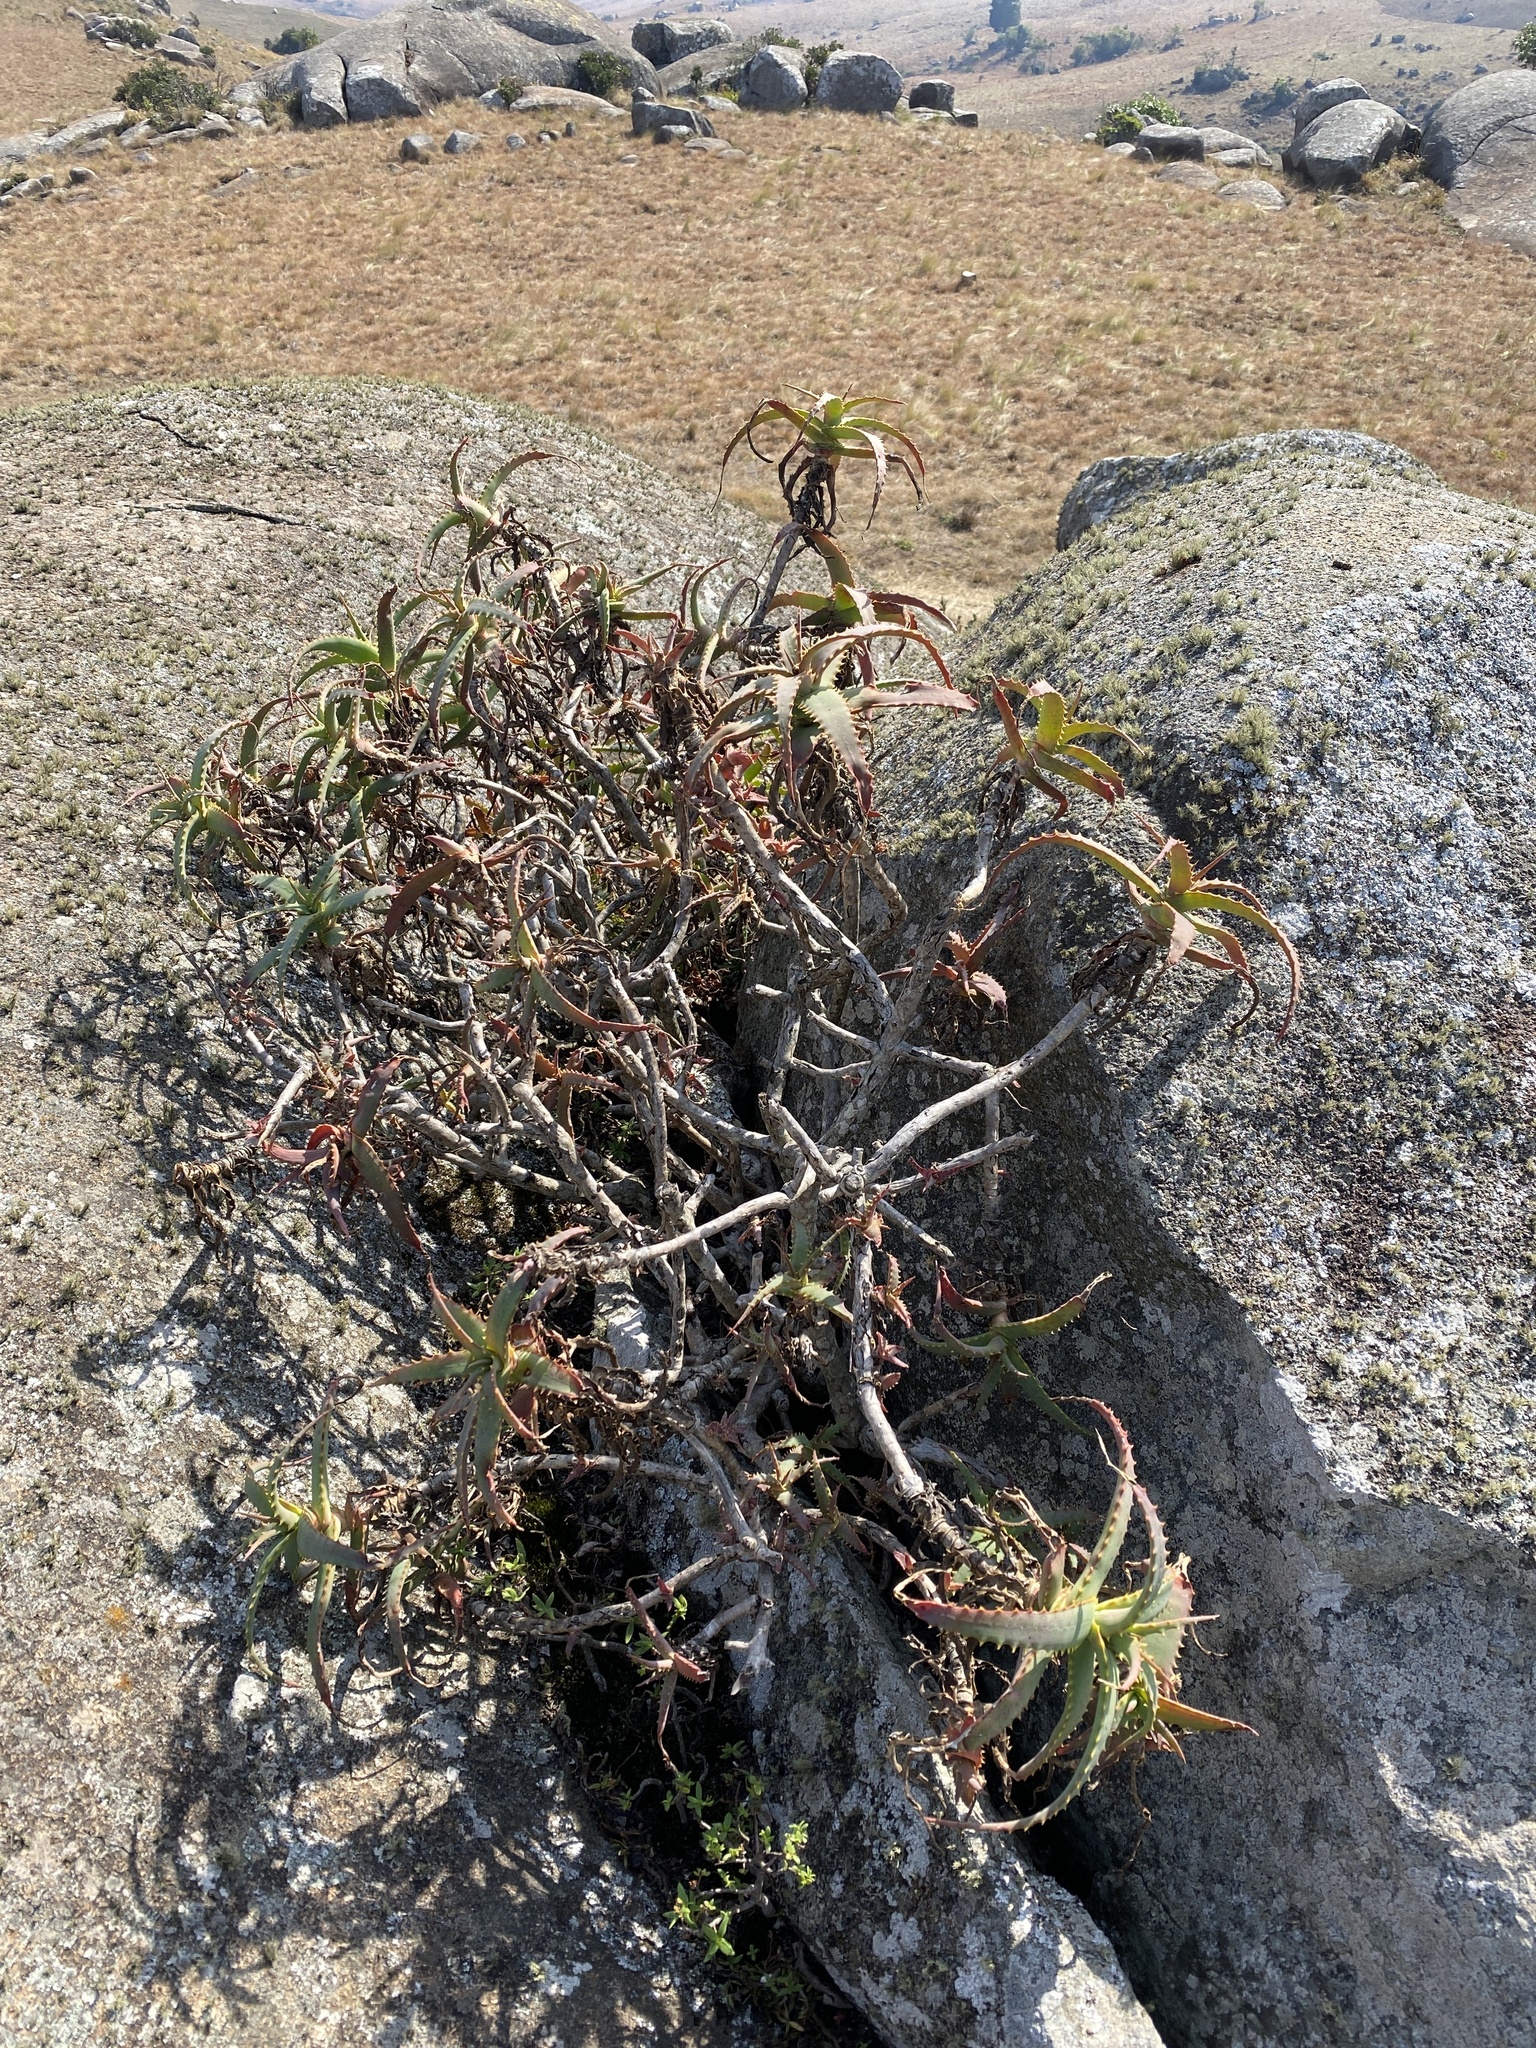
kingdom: Plantae
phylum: Tracheophyta
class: Liliopsida
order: Asparagales
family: Asphodelaceae
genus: Aloe
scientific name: Aloe arborescens
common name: Candelabra aloe
